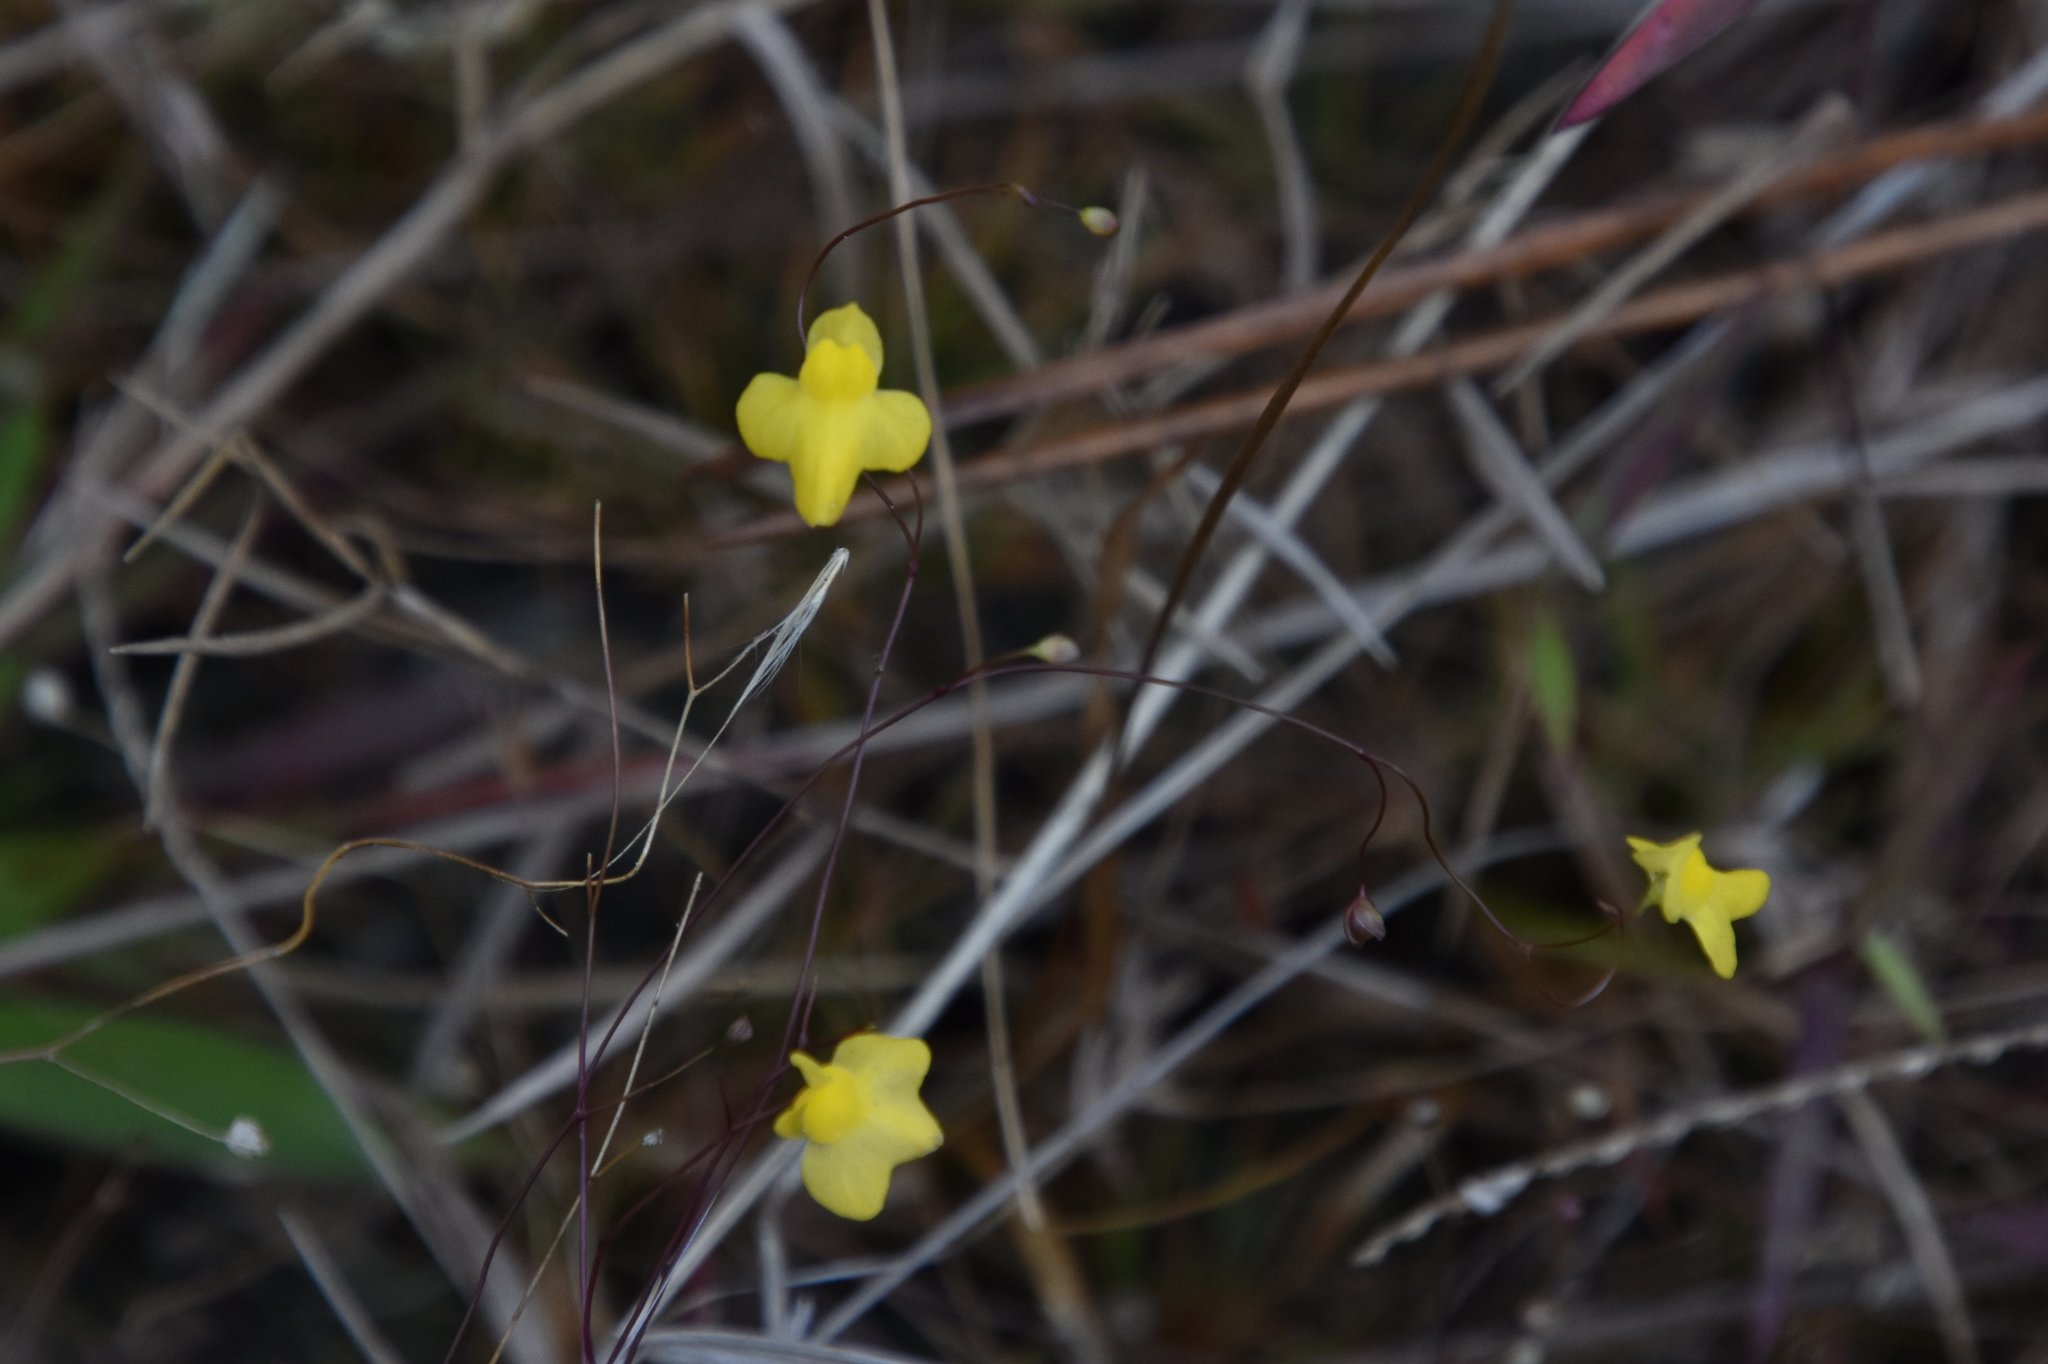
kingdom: Plantae
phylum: Tracheophyta
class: Magnoliopsida
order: Lamiales
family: Lentibulariaceae
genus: Utricularia
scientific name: Utricularia subulata
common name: Tiny bladderwort
